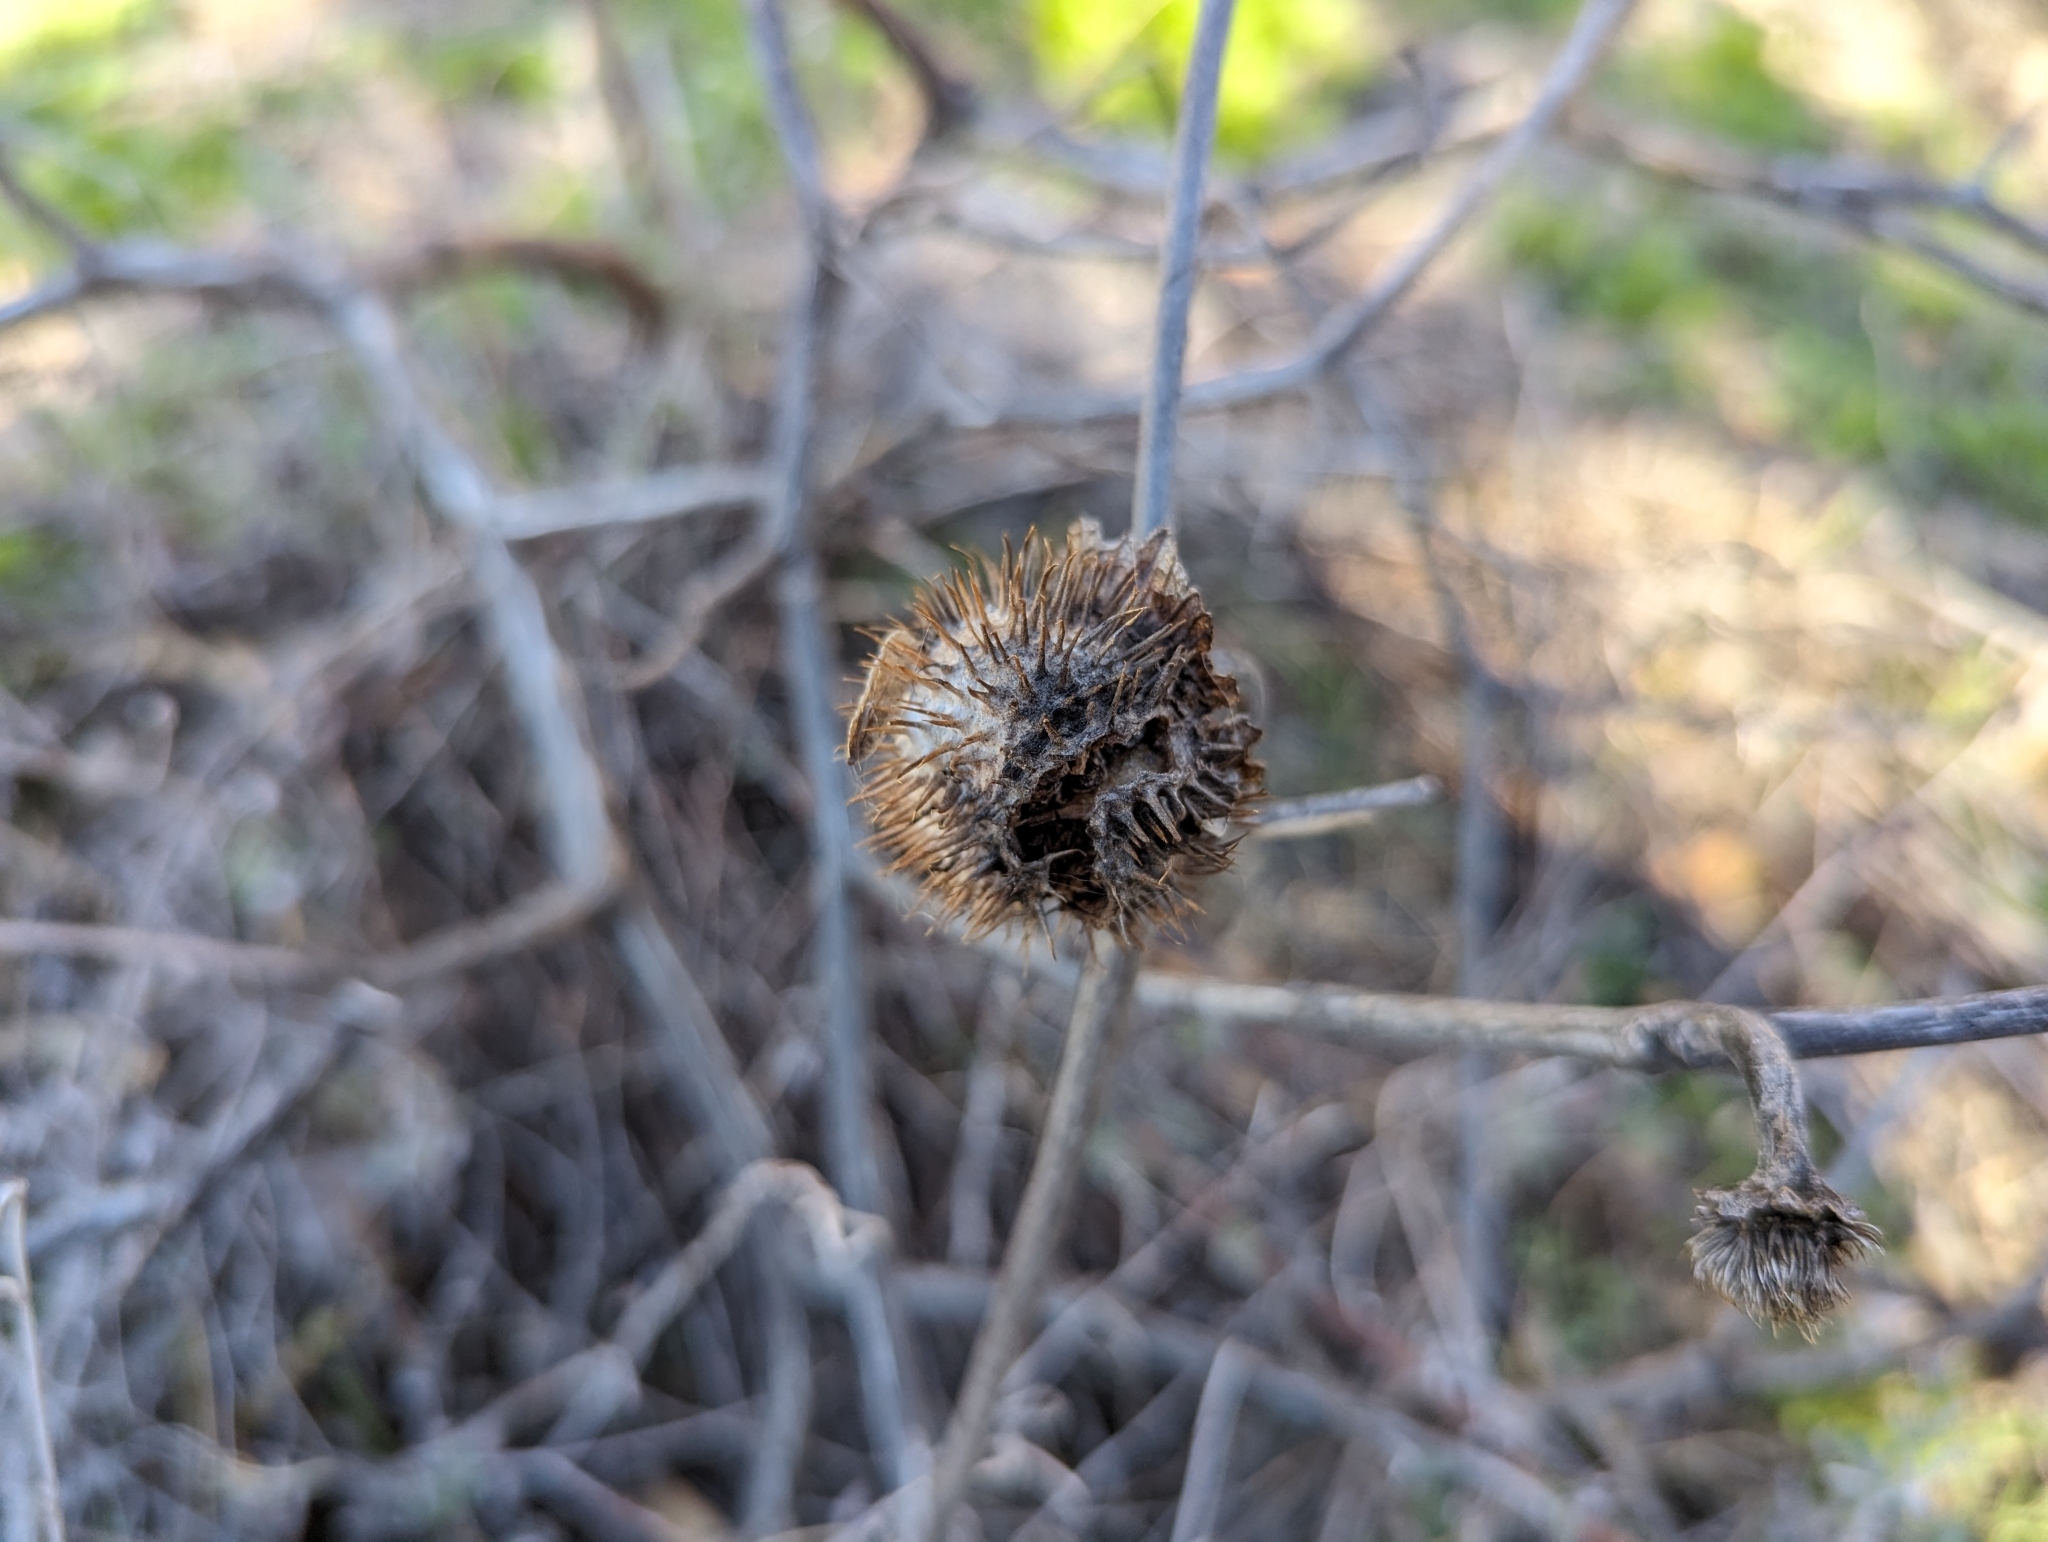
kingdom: Plantae
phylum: Tracheophyta
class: Magnoliopsida
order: Solanales
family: Solanaceae
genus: Datura
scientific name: Datura wrightii
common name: Sacred thorn-apple
